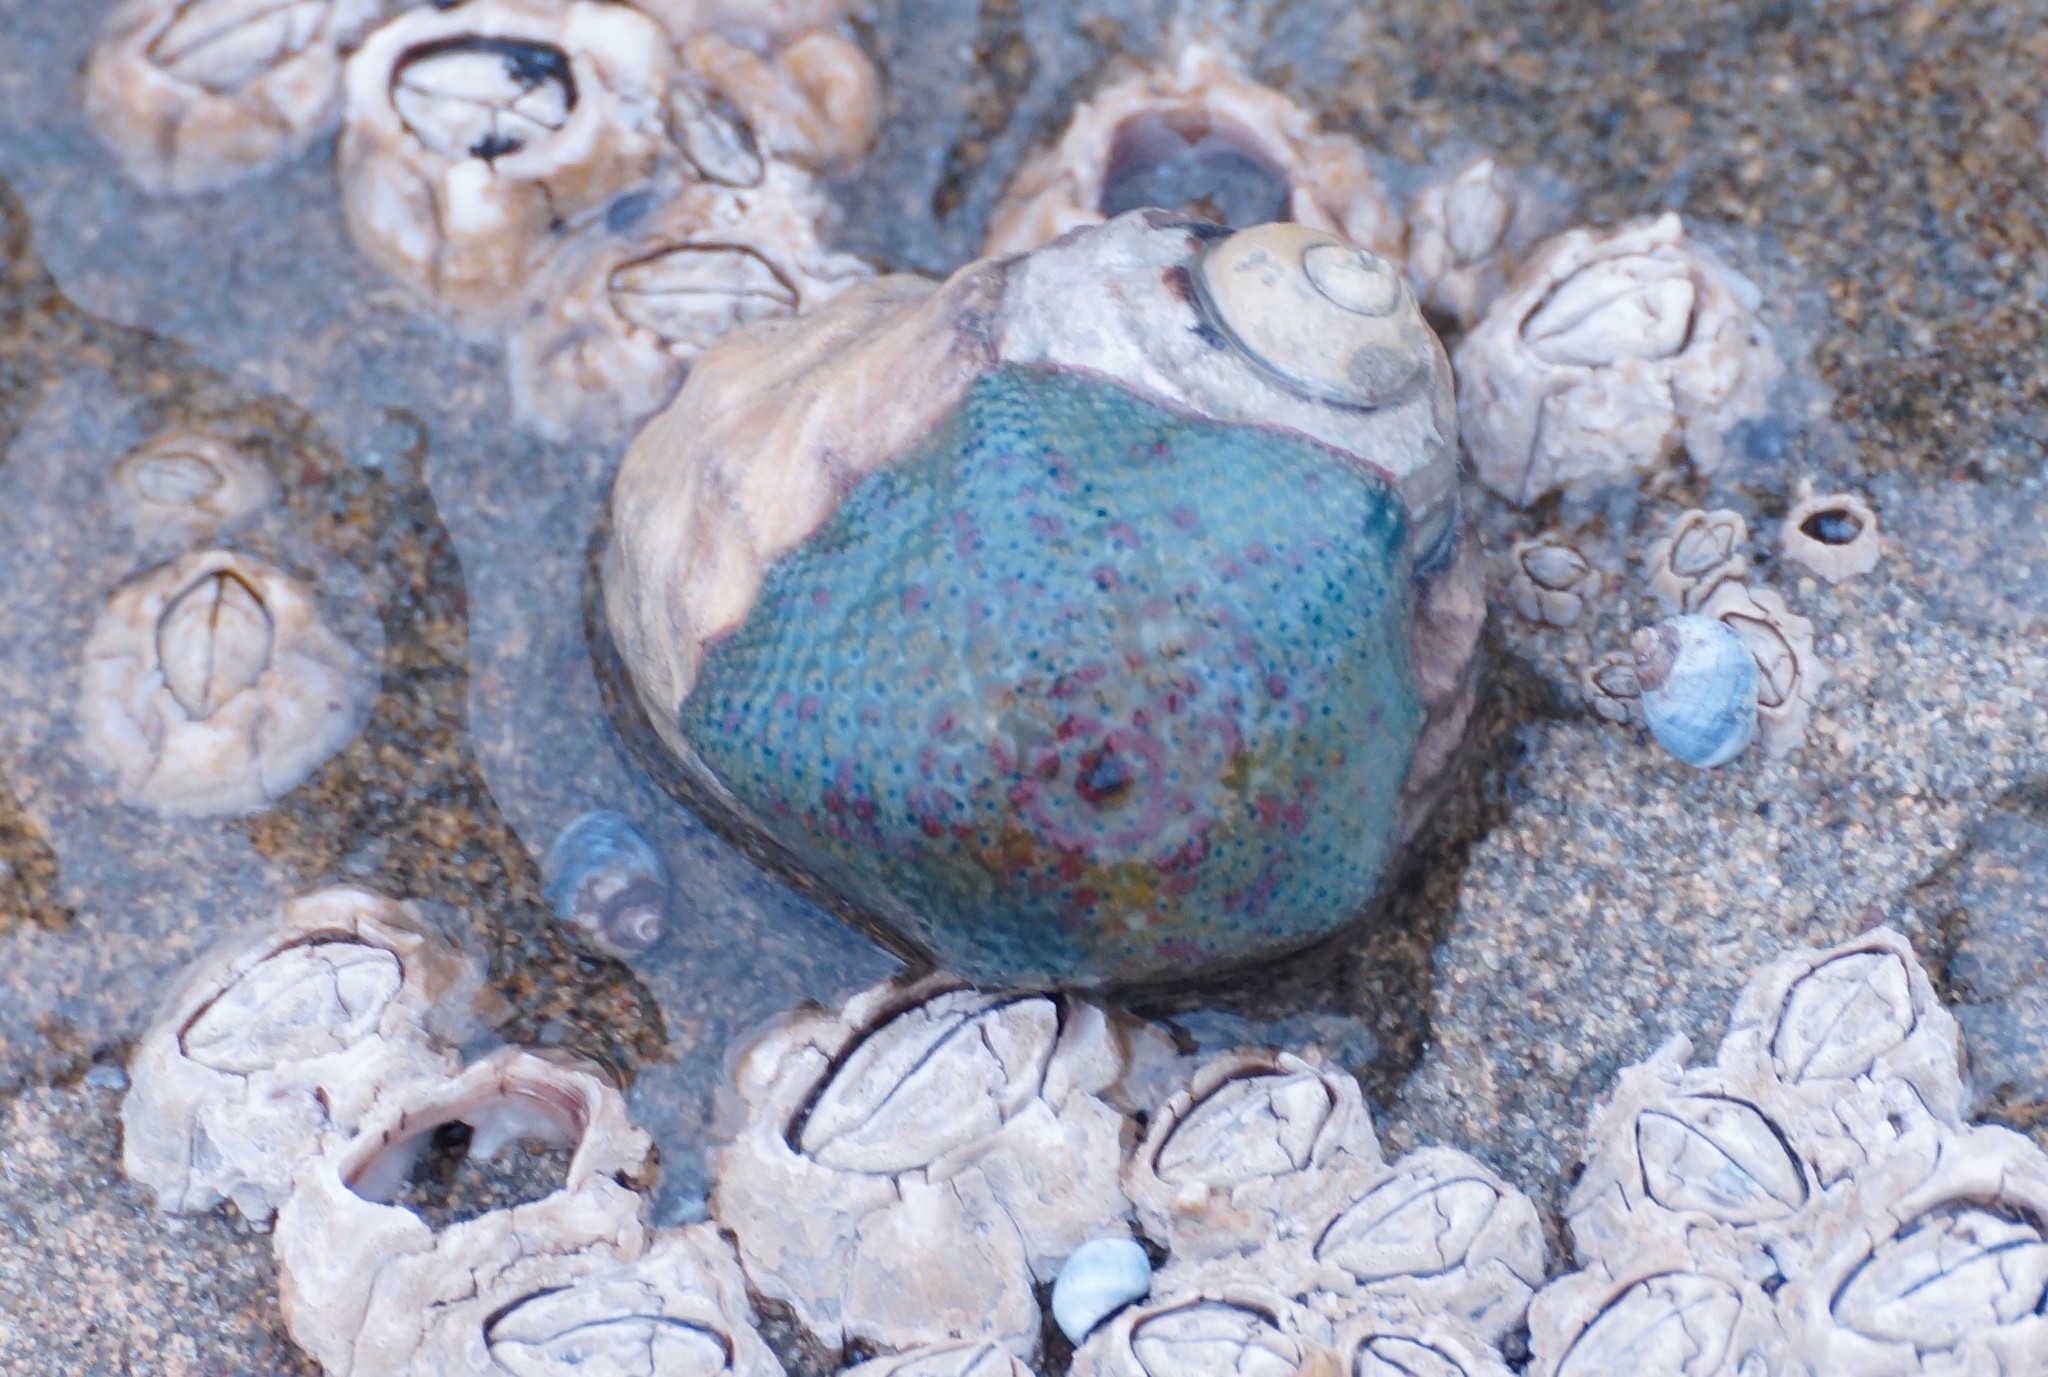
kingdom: Animalia
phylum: Echinodermata
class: Asteroidea
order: Valvatida
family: Asterinidae
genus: Parvulastra
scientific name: Parvulastra exigua
